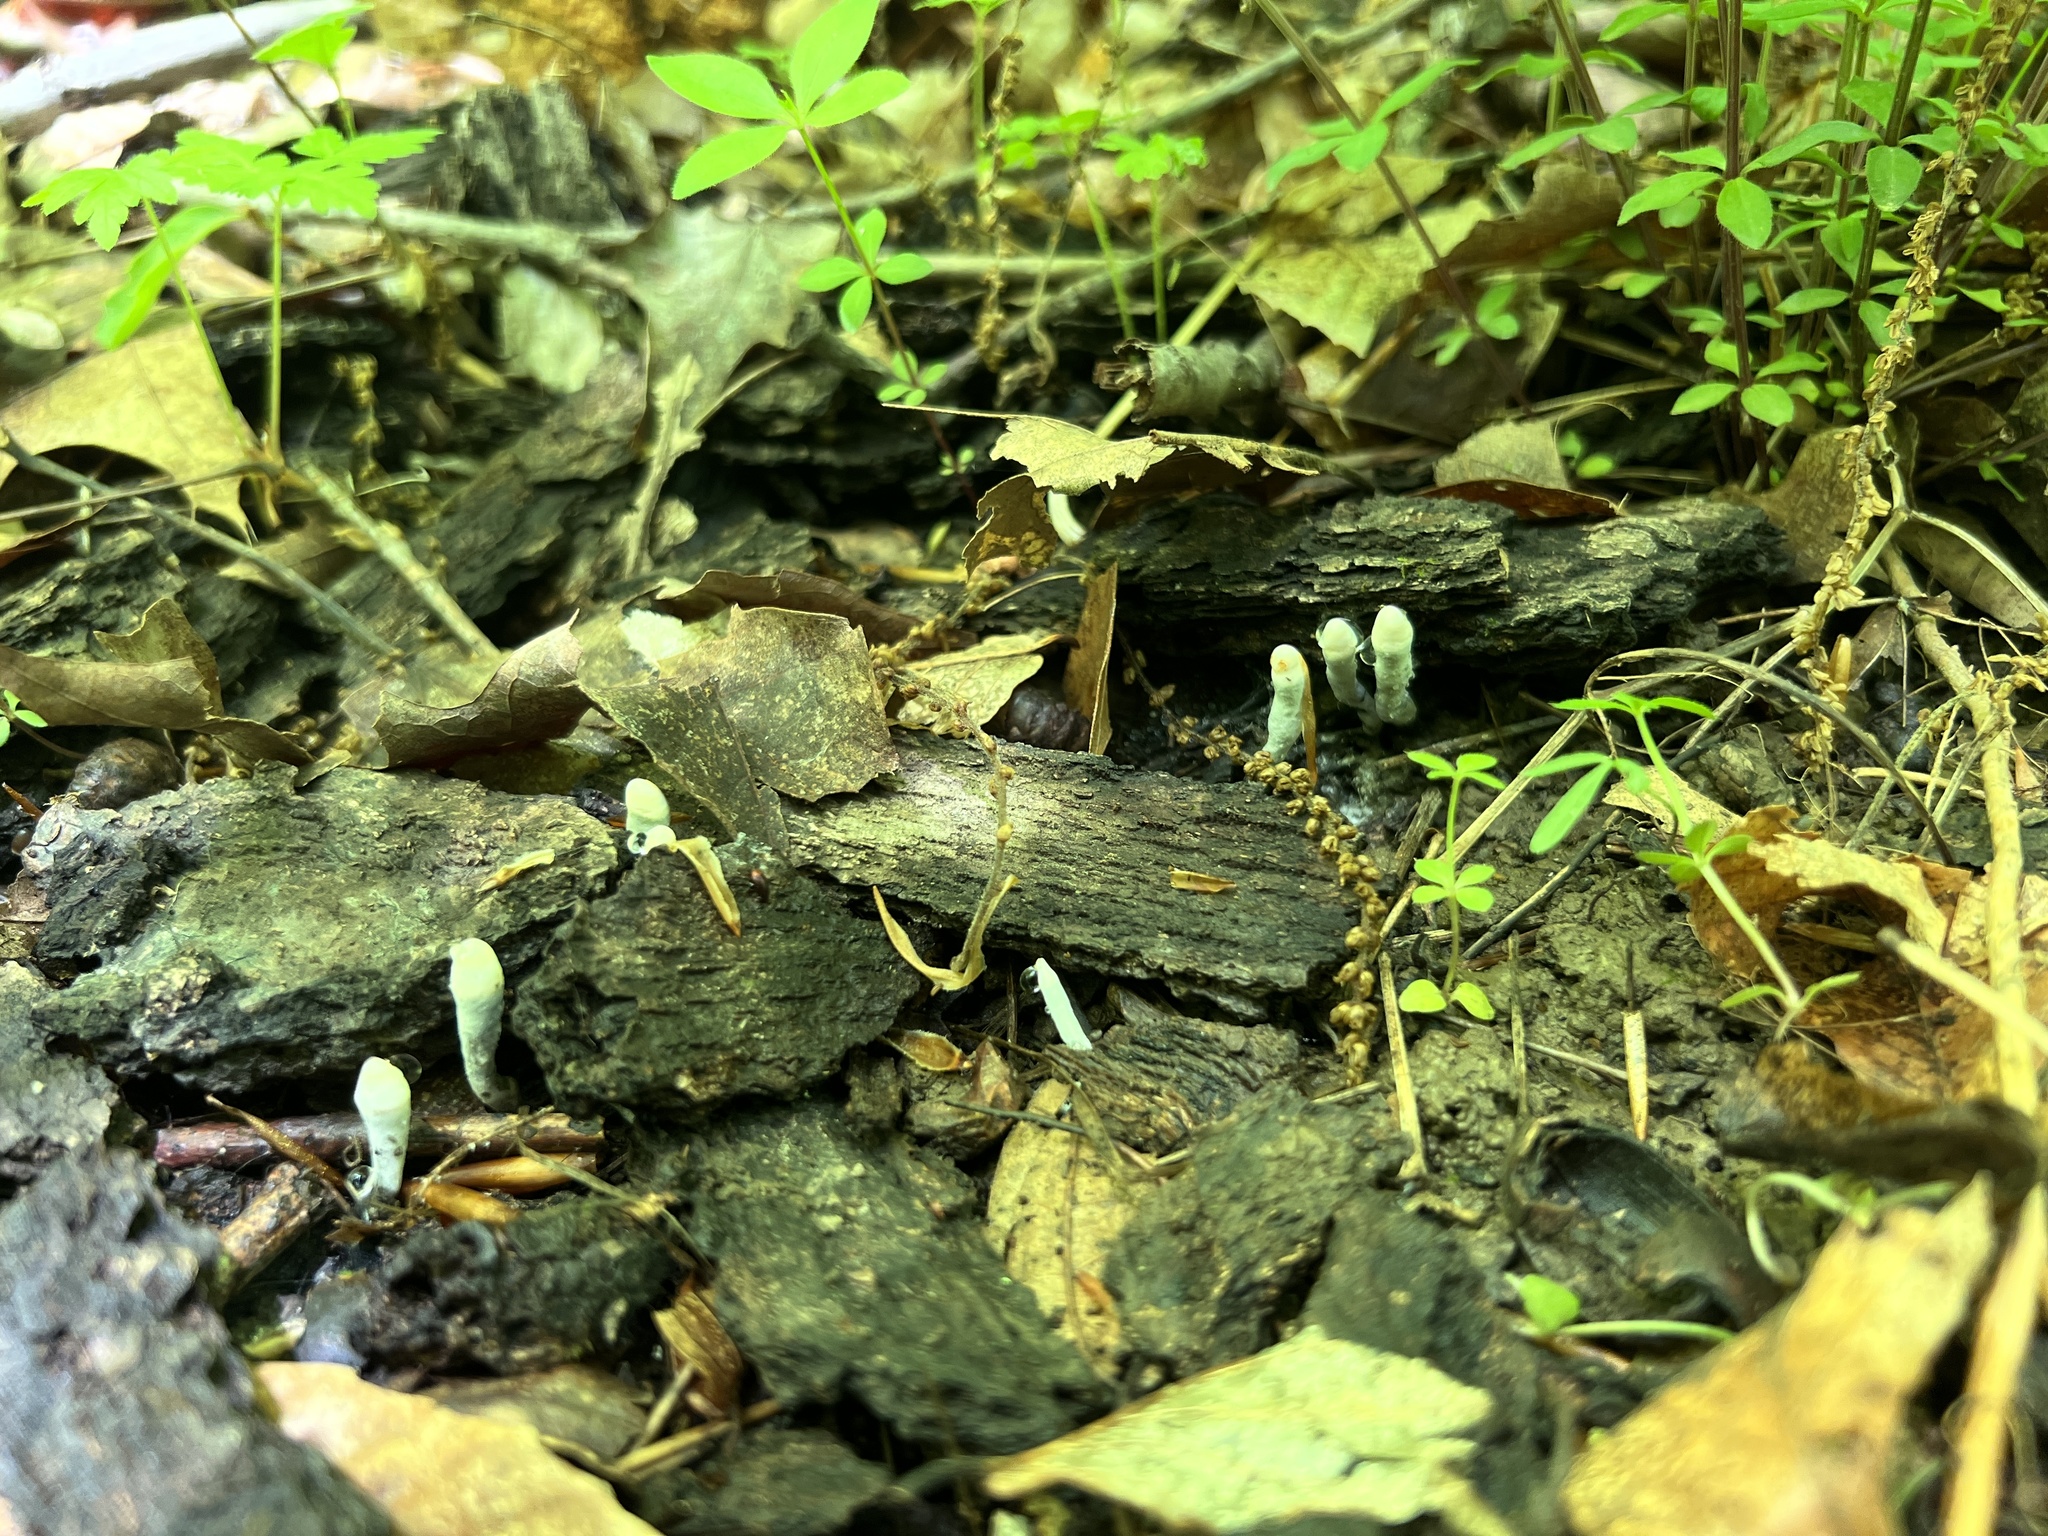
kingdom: Fungi
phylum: Ascomycota
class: Sordariomycetes
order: Xylariales
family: Xylariaceae
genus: Xylaria
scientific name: Xylaria cornu-damae
